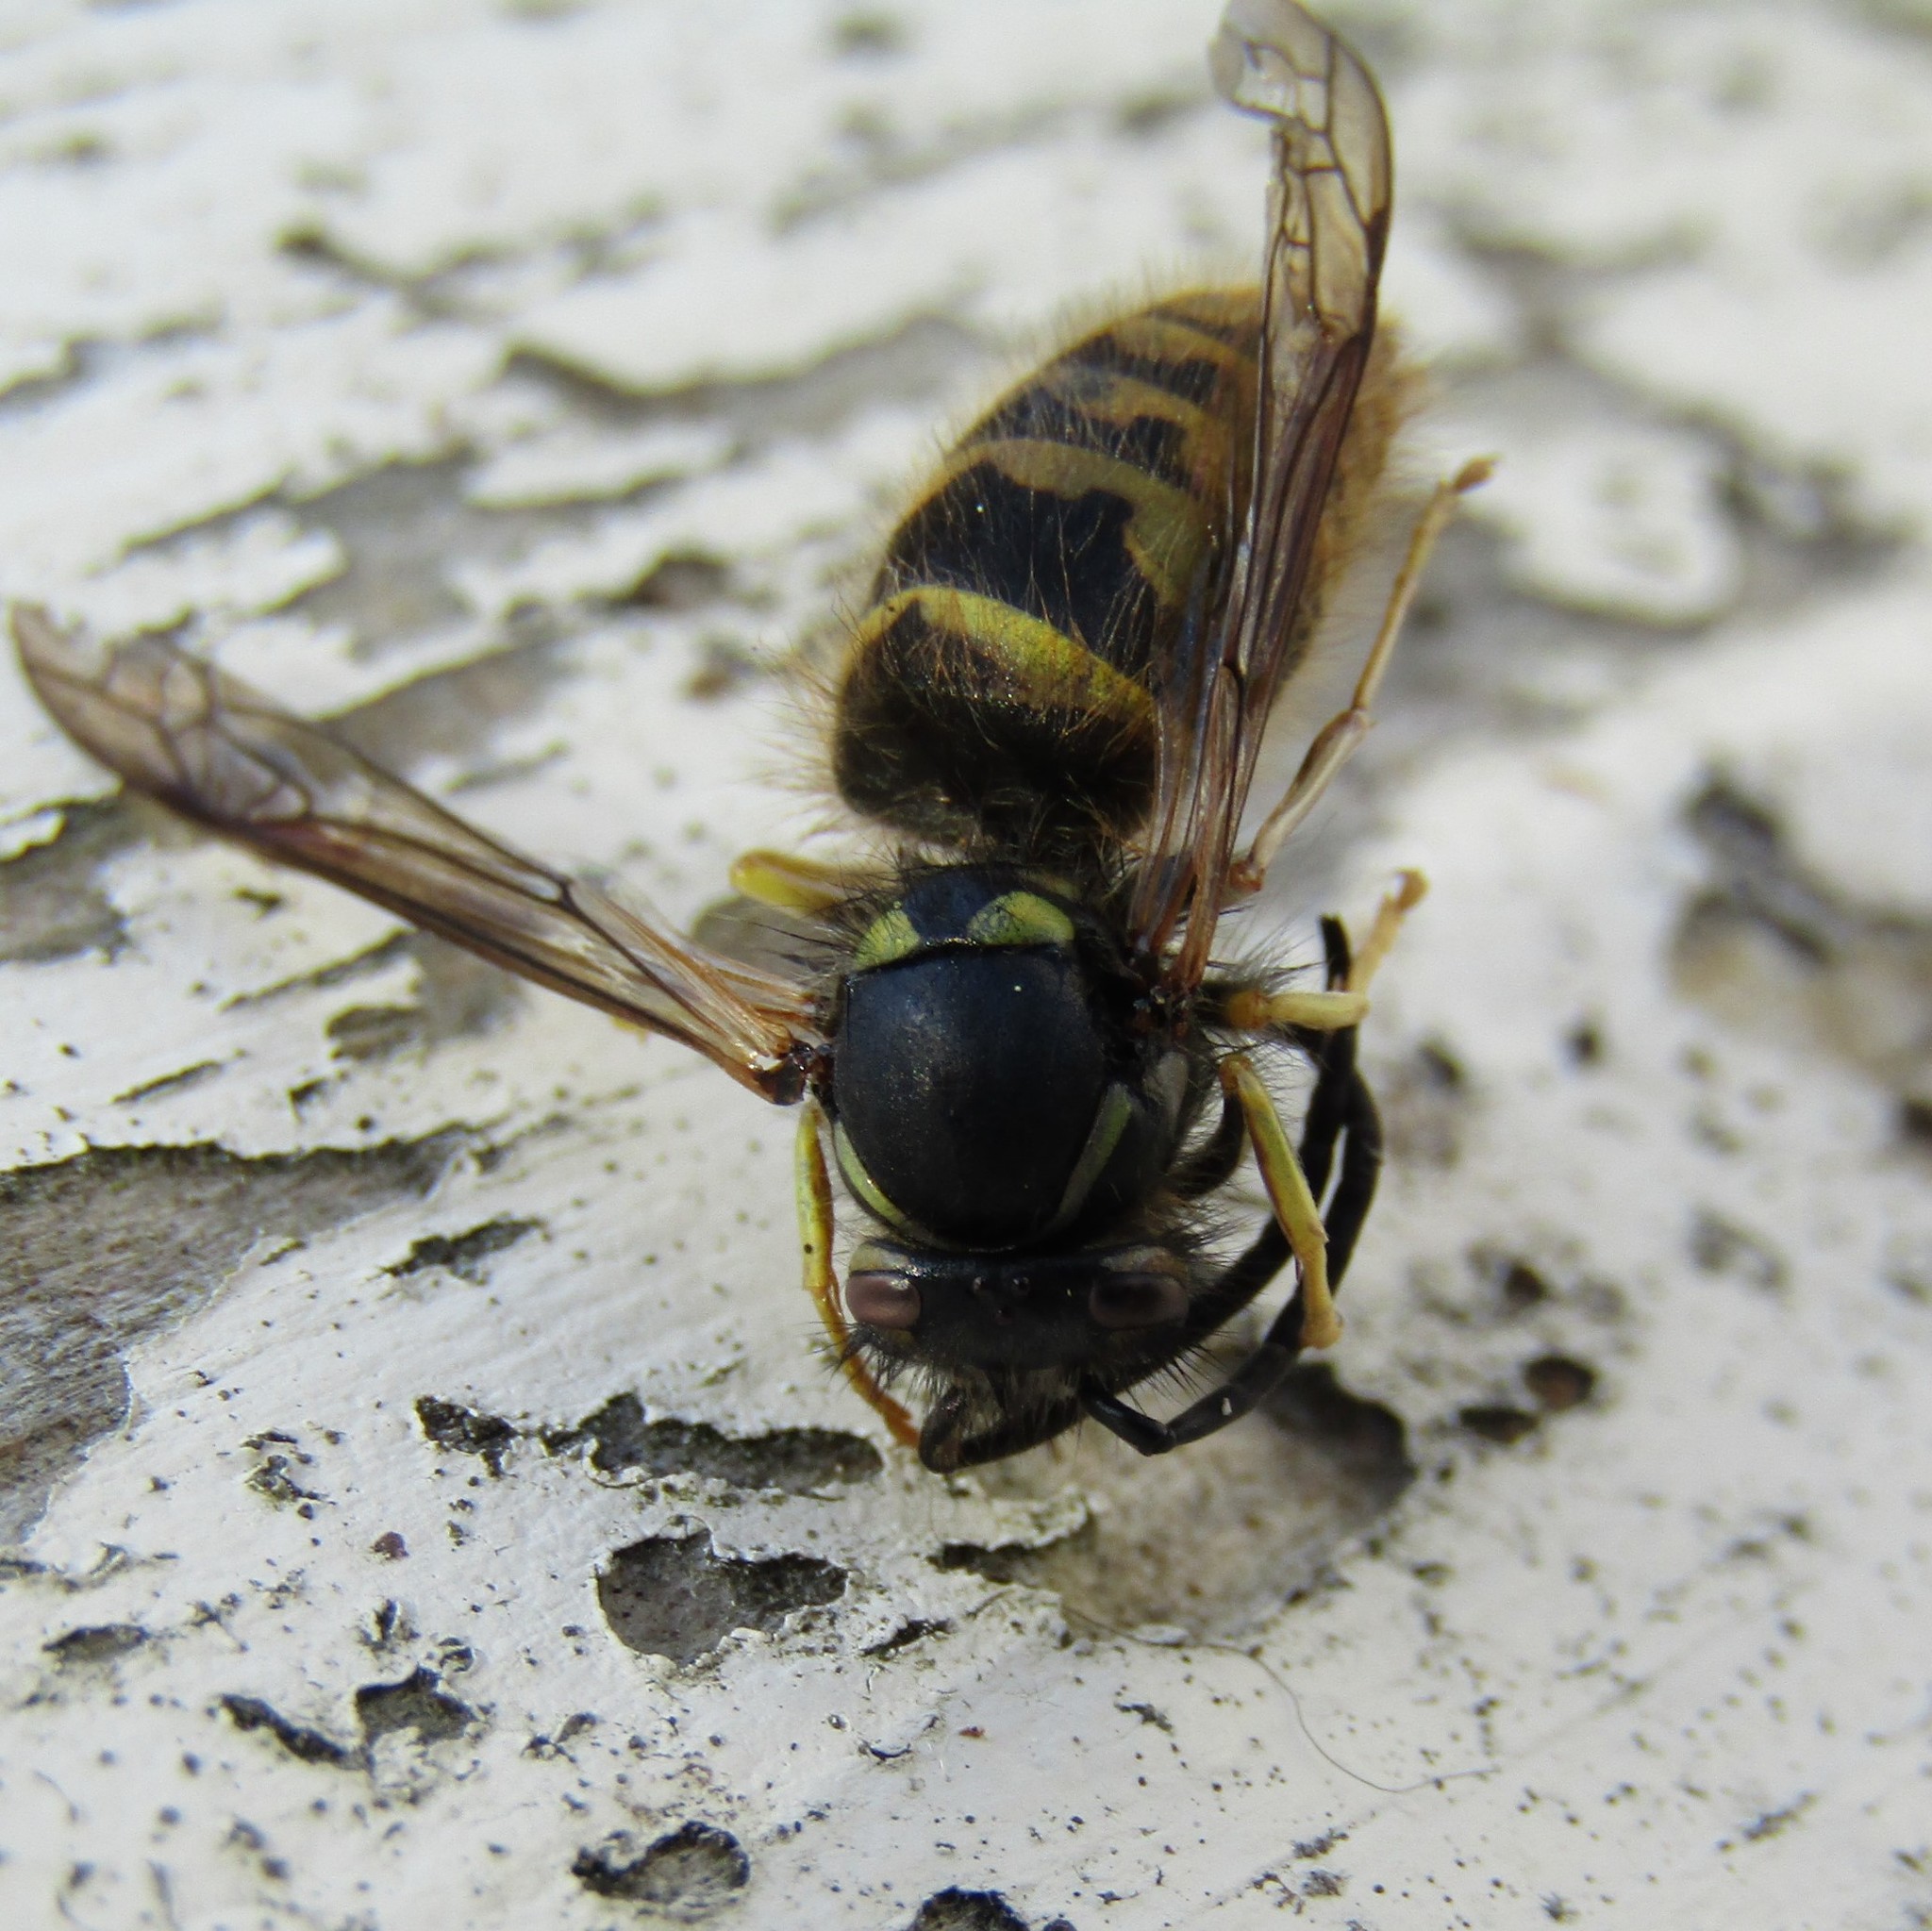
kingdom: Animalia
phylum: Arthropoda
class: Insecta
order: Hymenoptera
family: Vespidae
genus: Vespula
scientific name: Vespula vulgaris
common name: Common wasp
